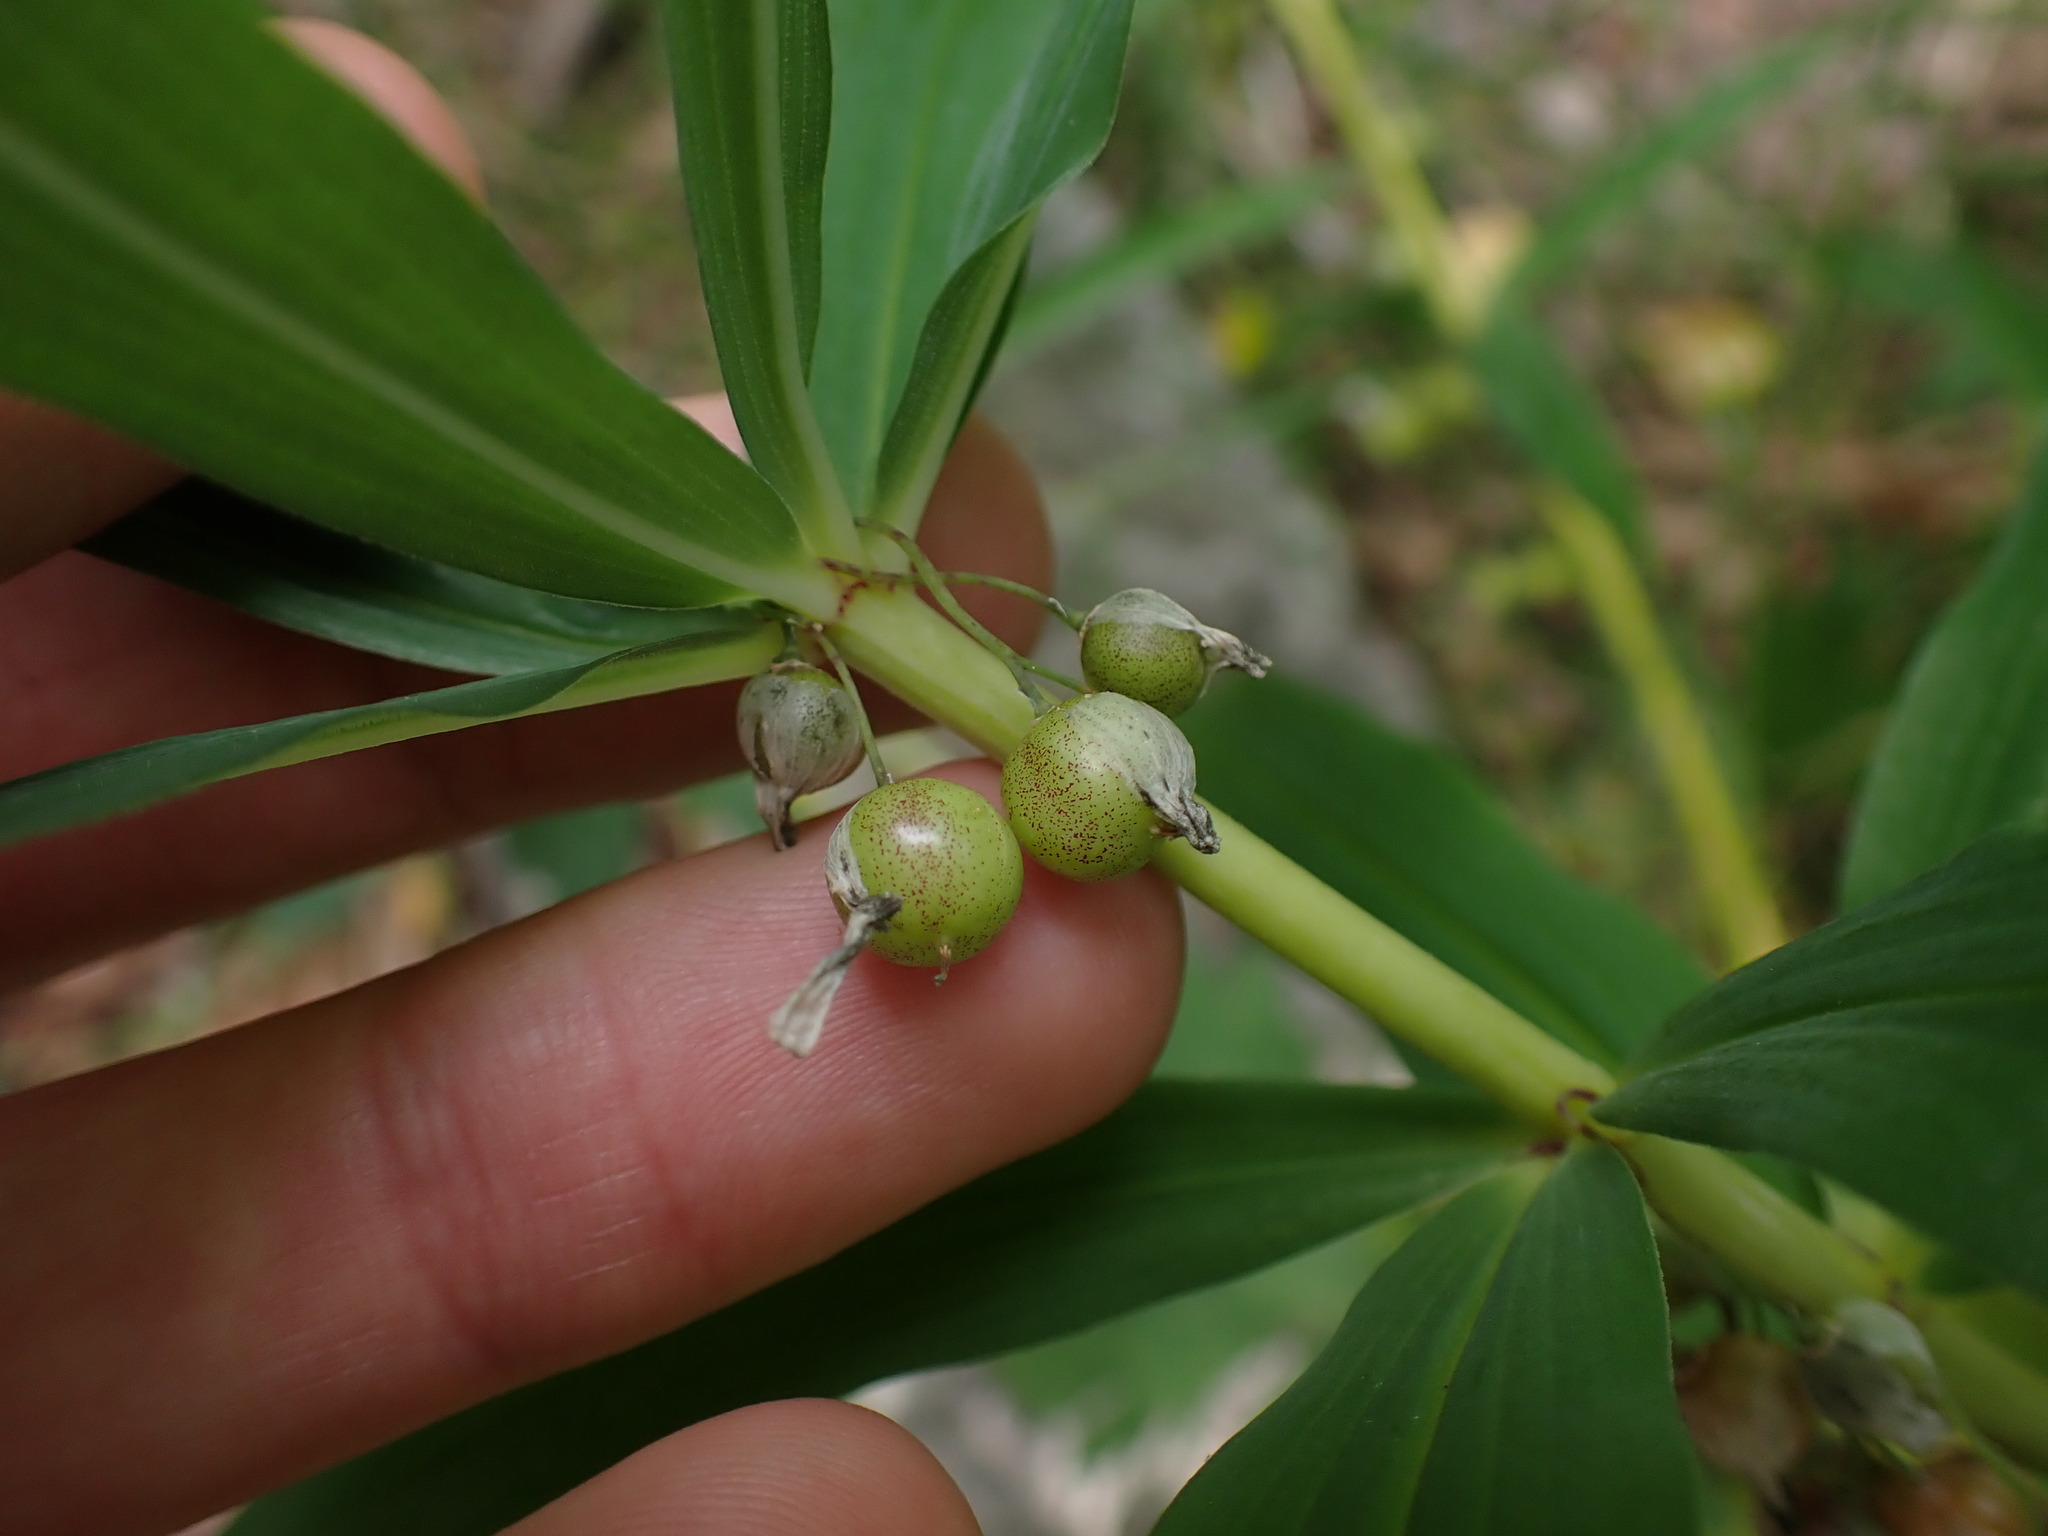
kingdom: Plantae
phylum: Tracheophyta
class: Liliopsida
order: Asparagales
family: Asparagaceae
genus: Polygonatum
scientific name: Polygonatum verticillatum
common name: Whorled solomon's-seal
